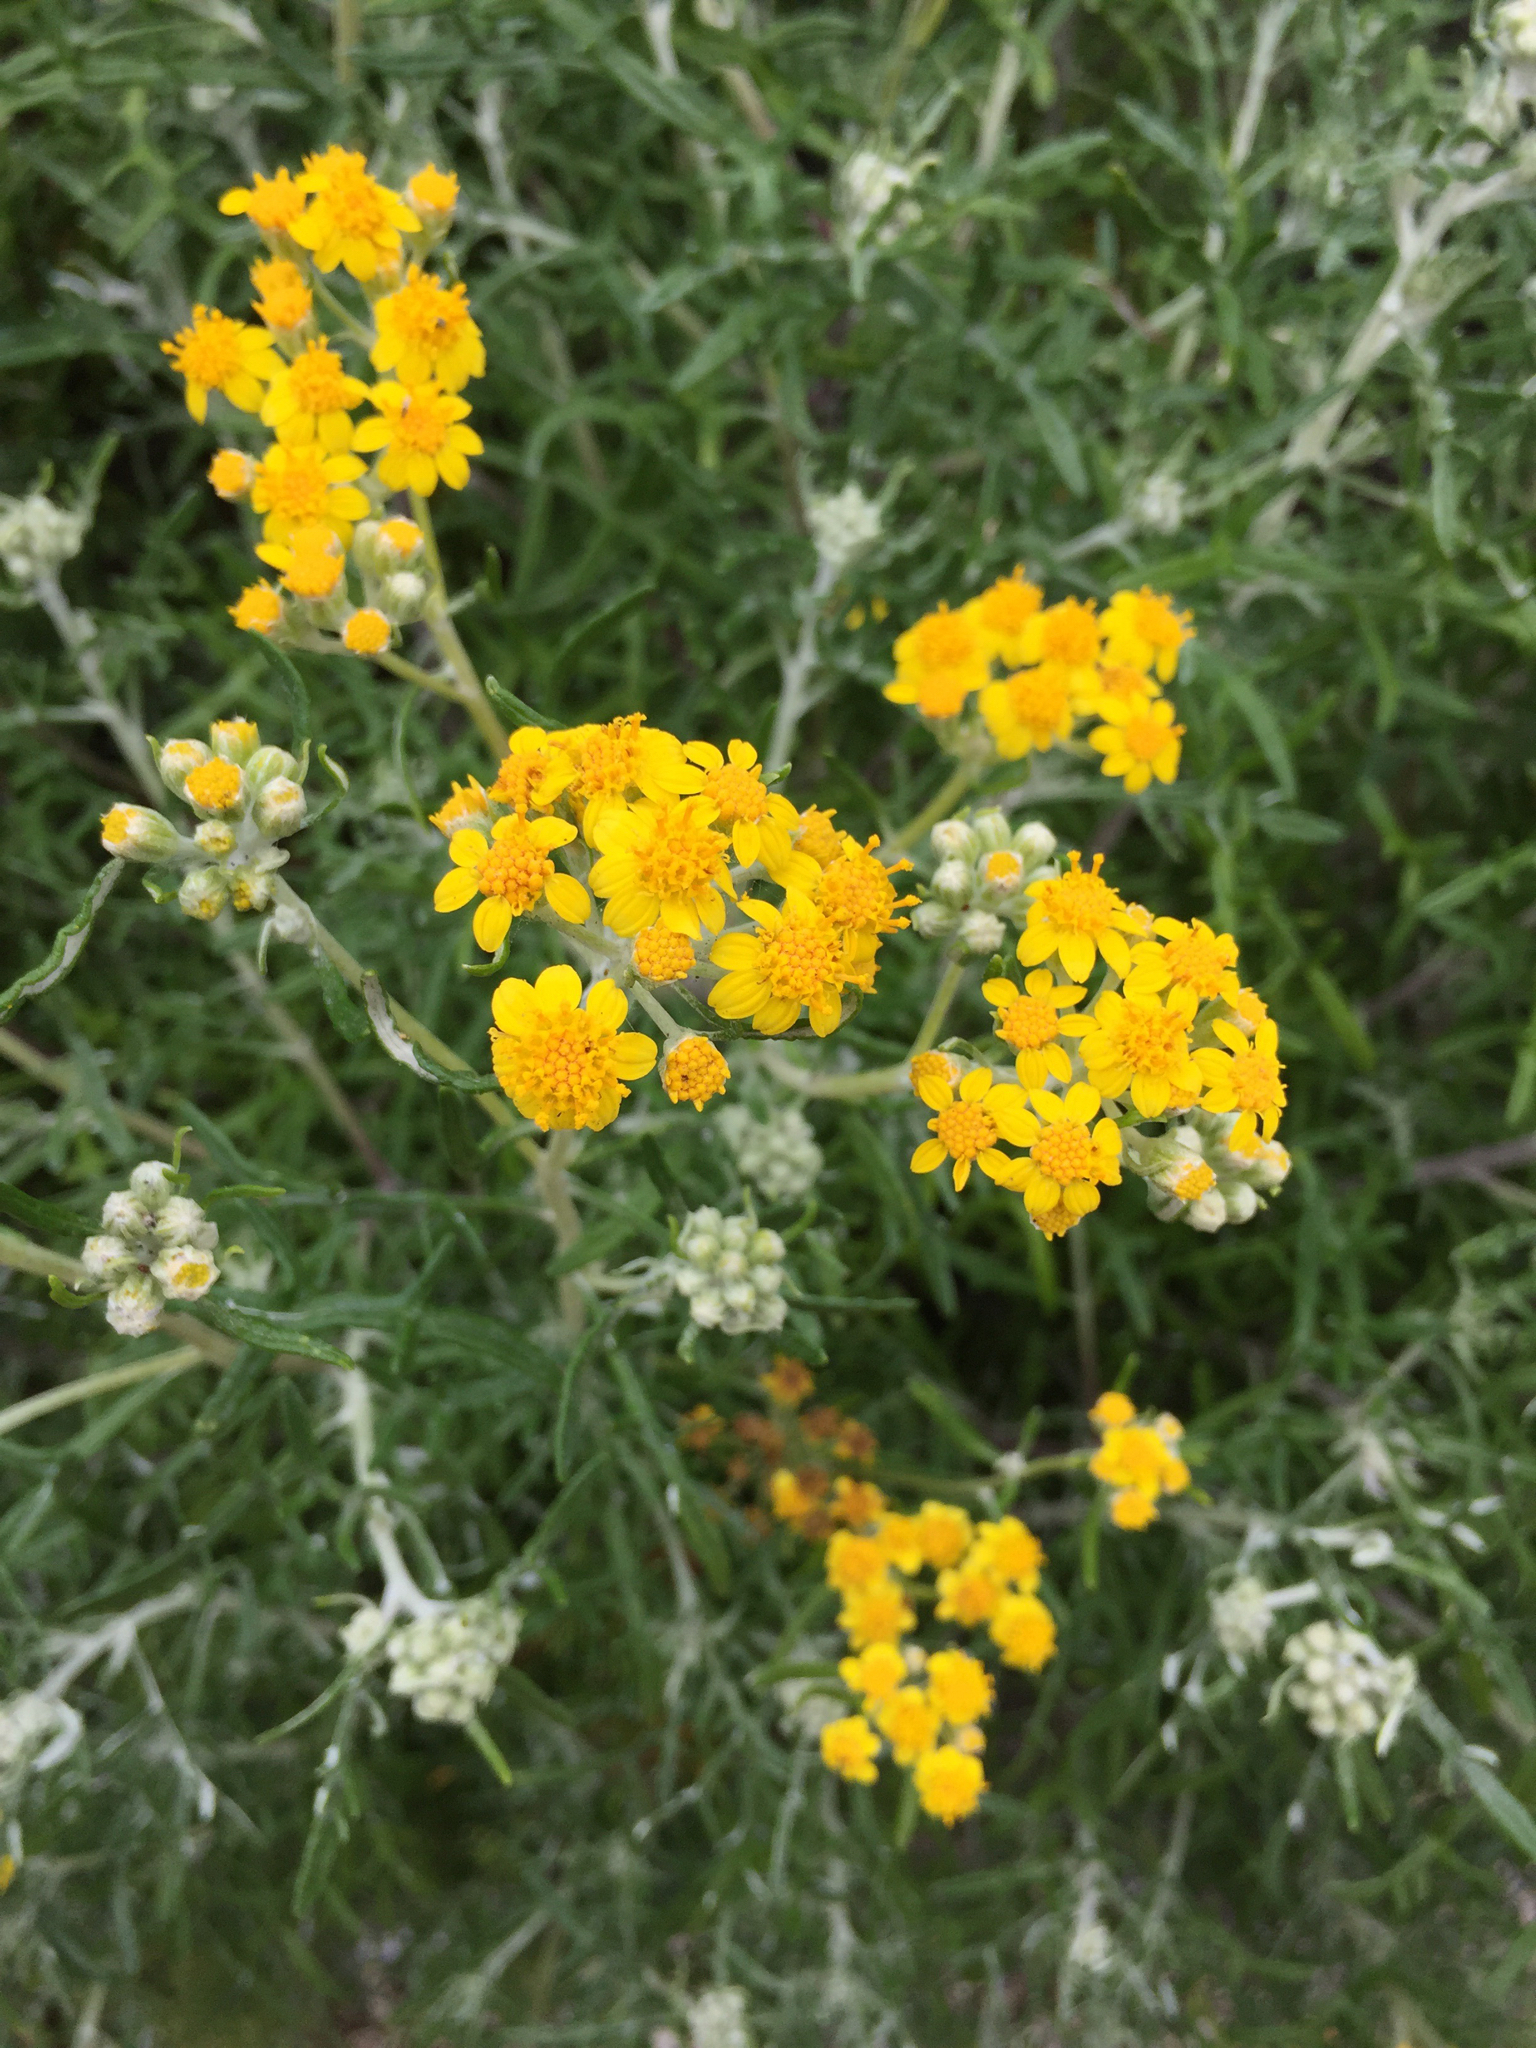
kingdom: Plantae
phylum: Tracheophyta
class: Magnoliopsida
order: Asterales
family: Asteraceae
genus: Eriophyllum
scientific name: Eriophyllum staechadifolium
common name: Lizardtail
